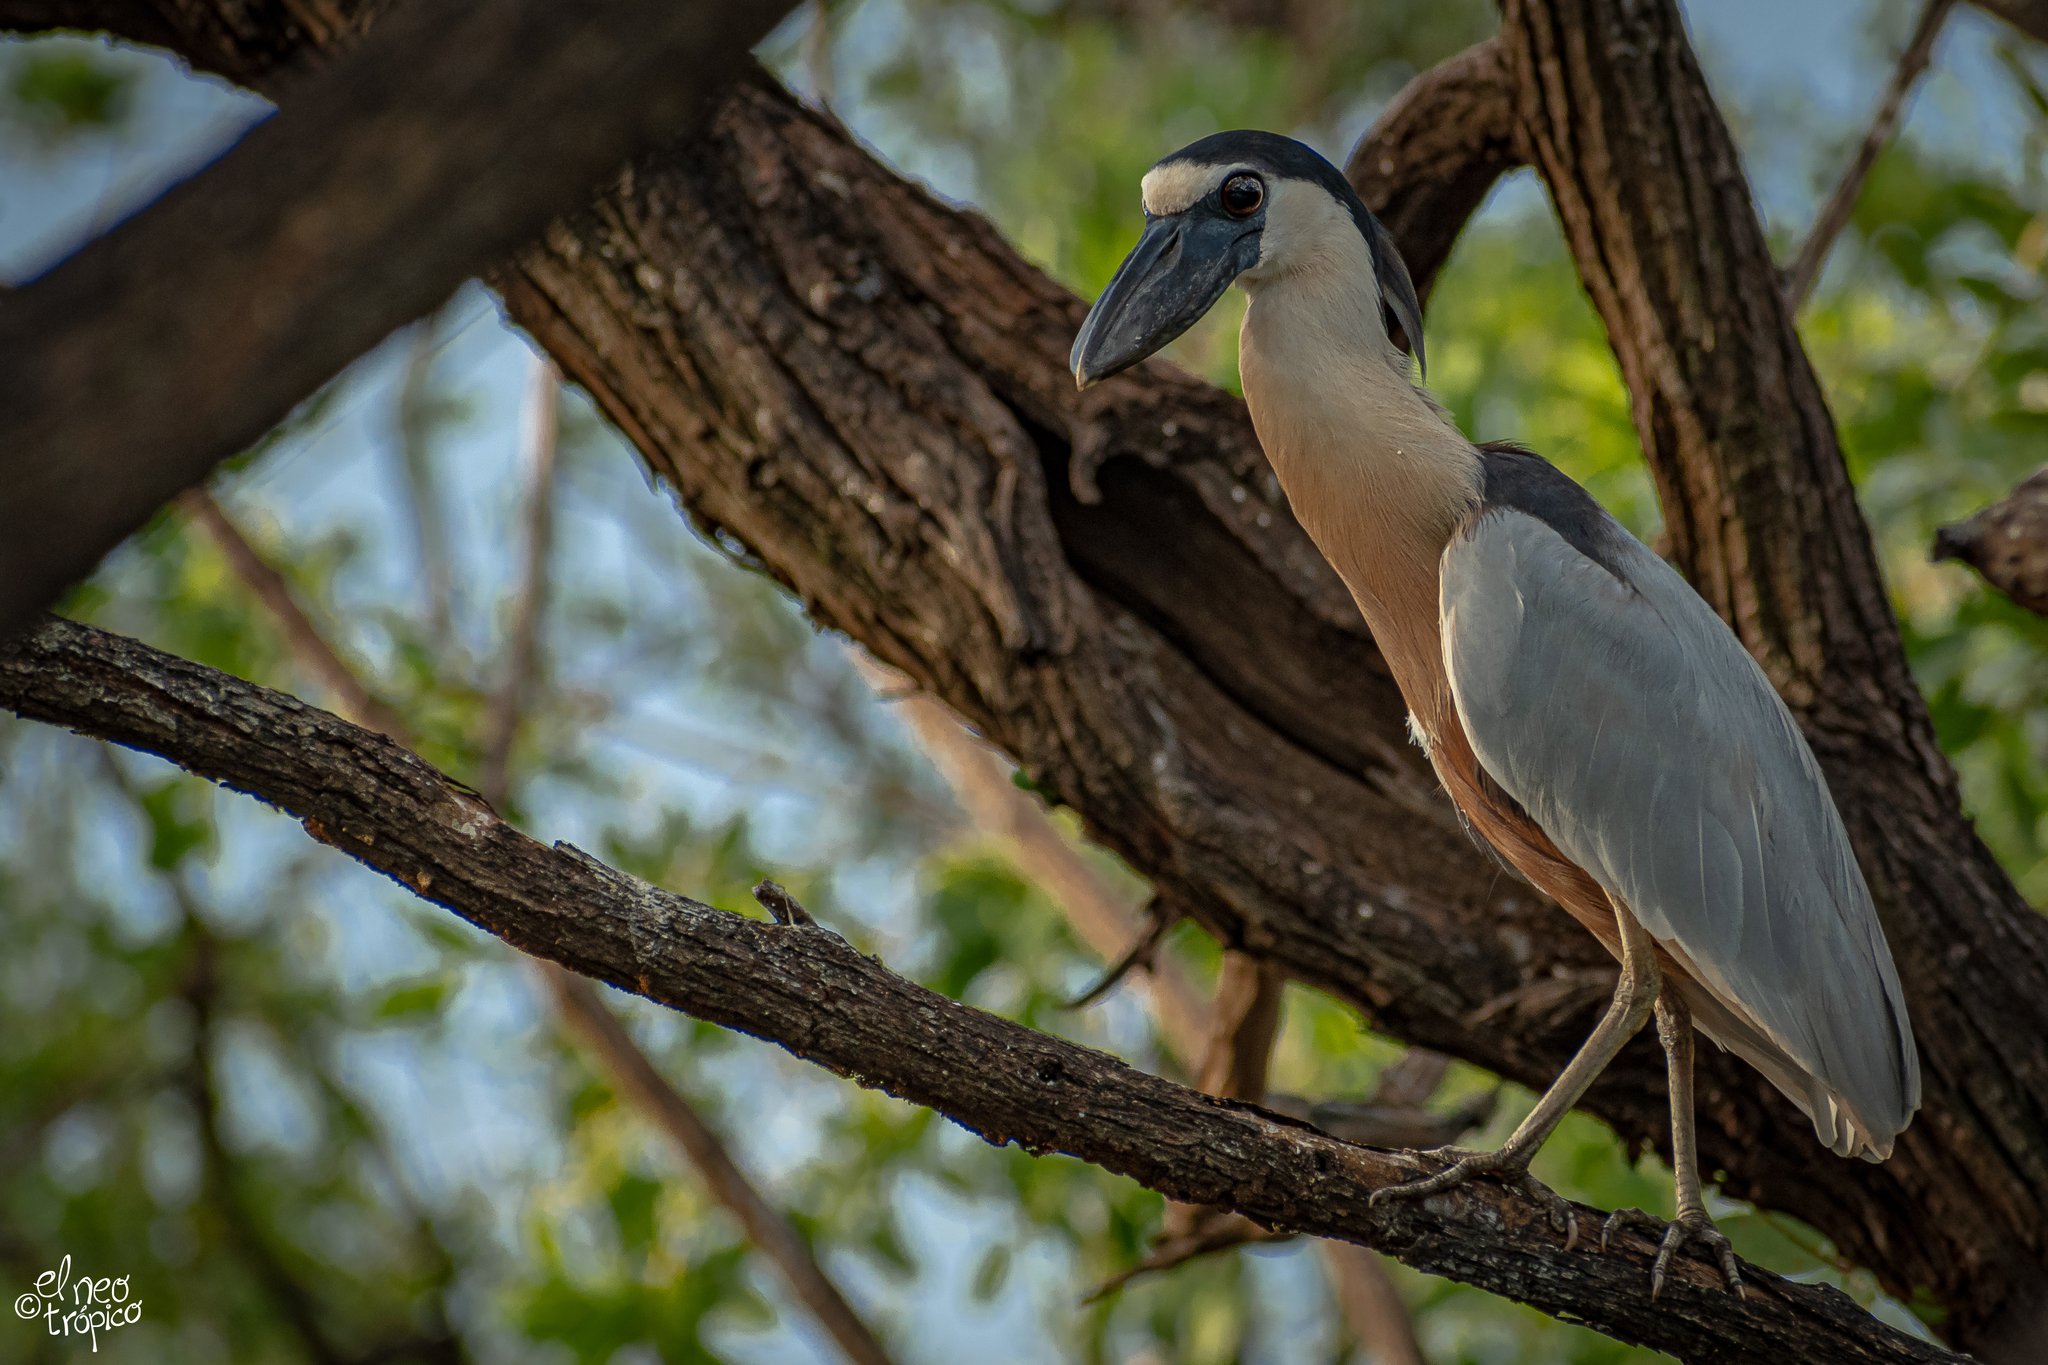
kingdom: Animalia
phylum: Chordata
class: Aves
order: Pelecaniformes
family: Ardeidae
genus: Cochlearius
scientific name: Cochlearius cochlearius
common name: Boat-billed heron
